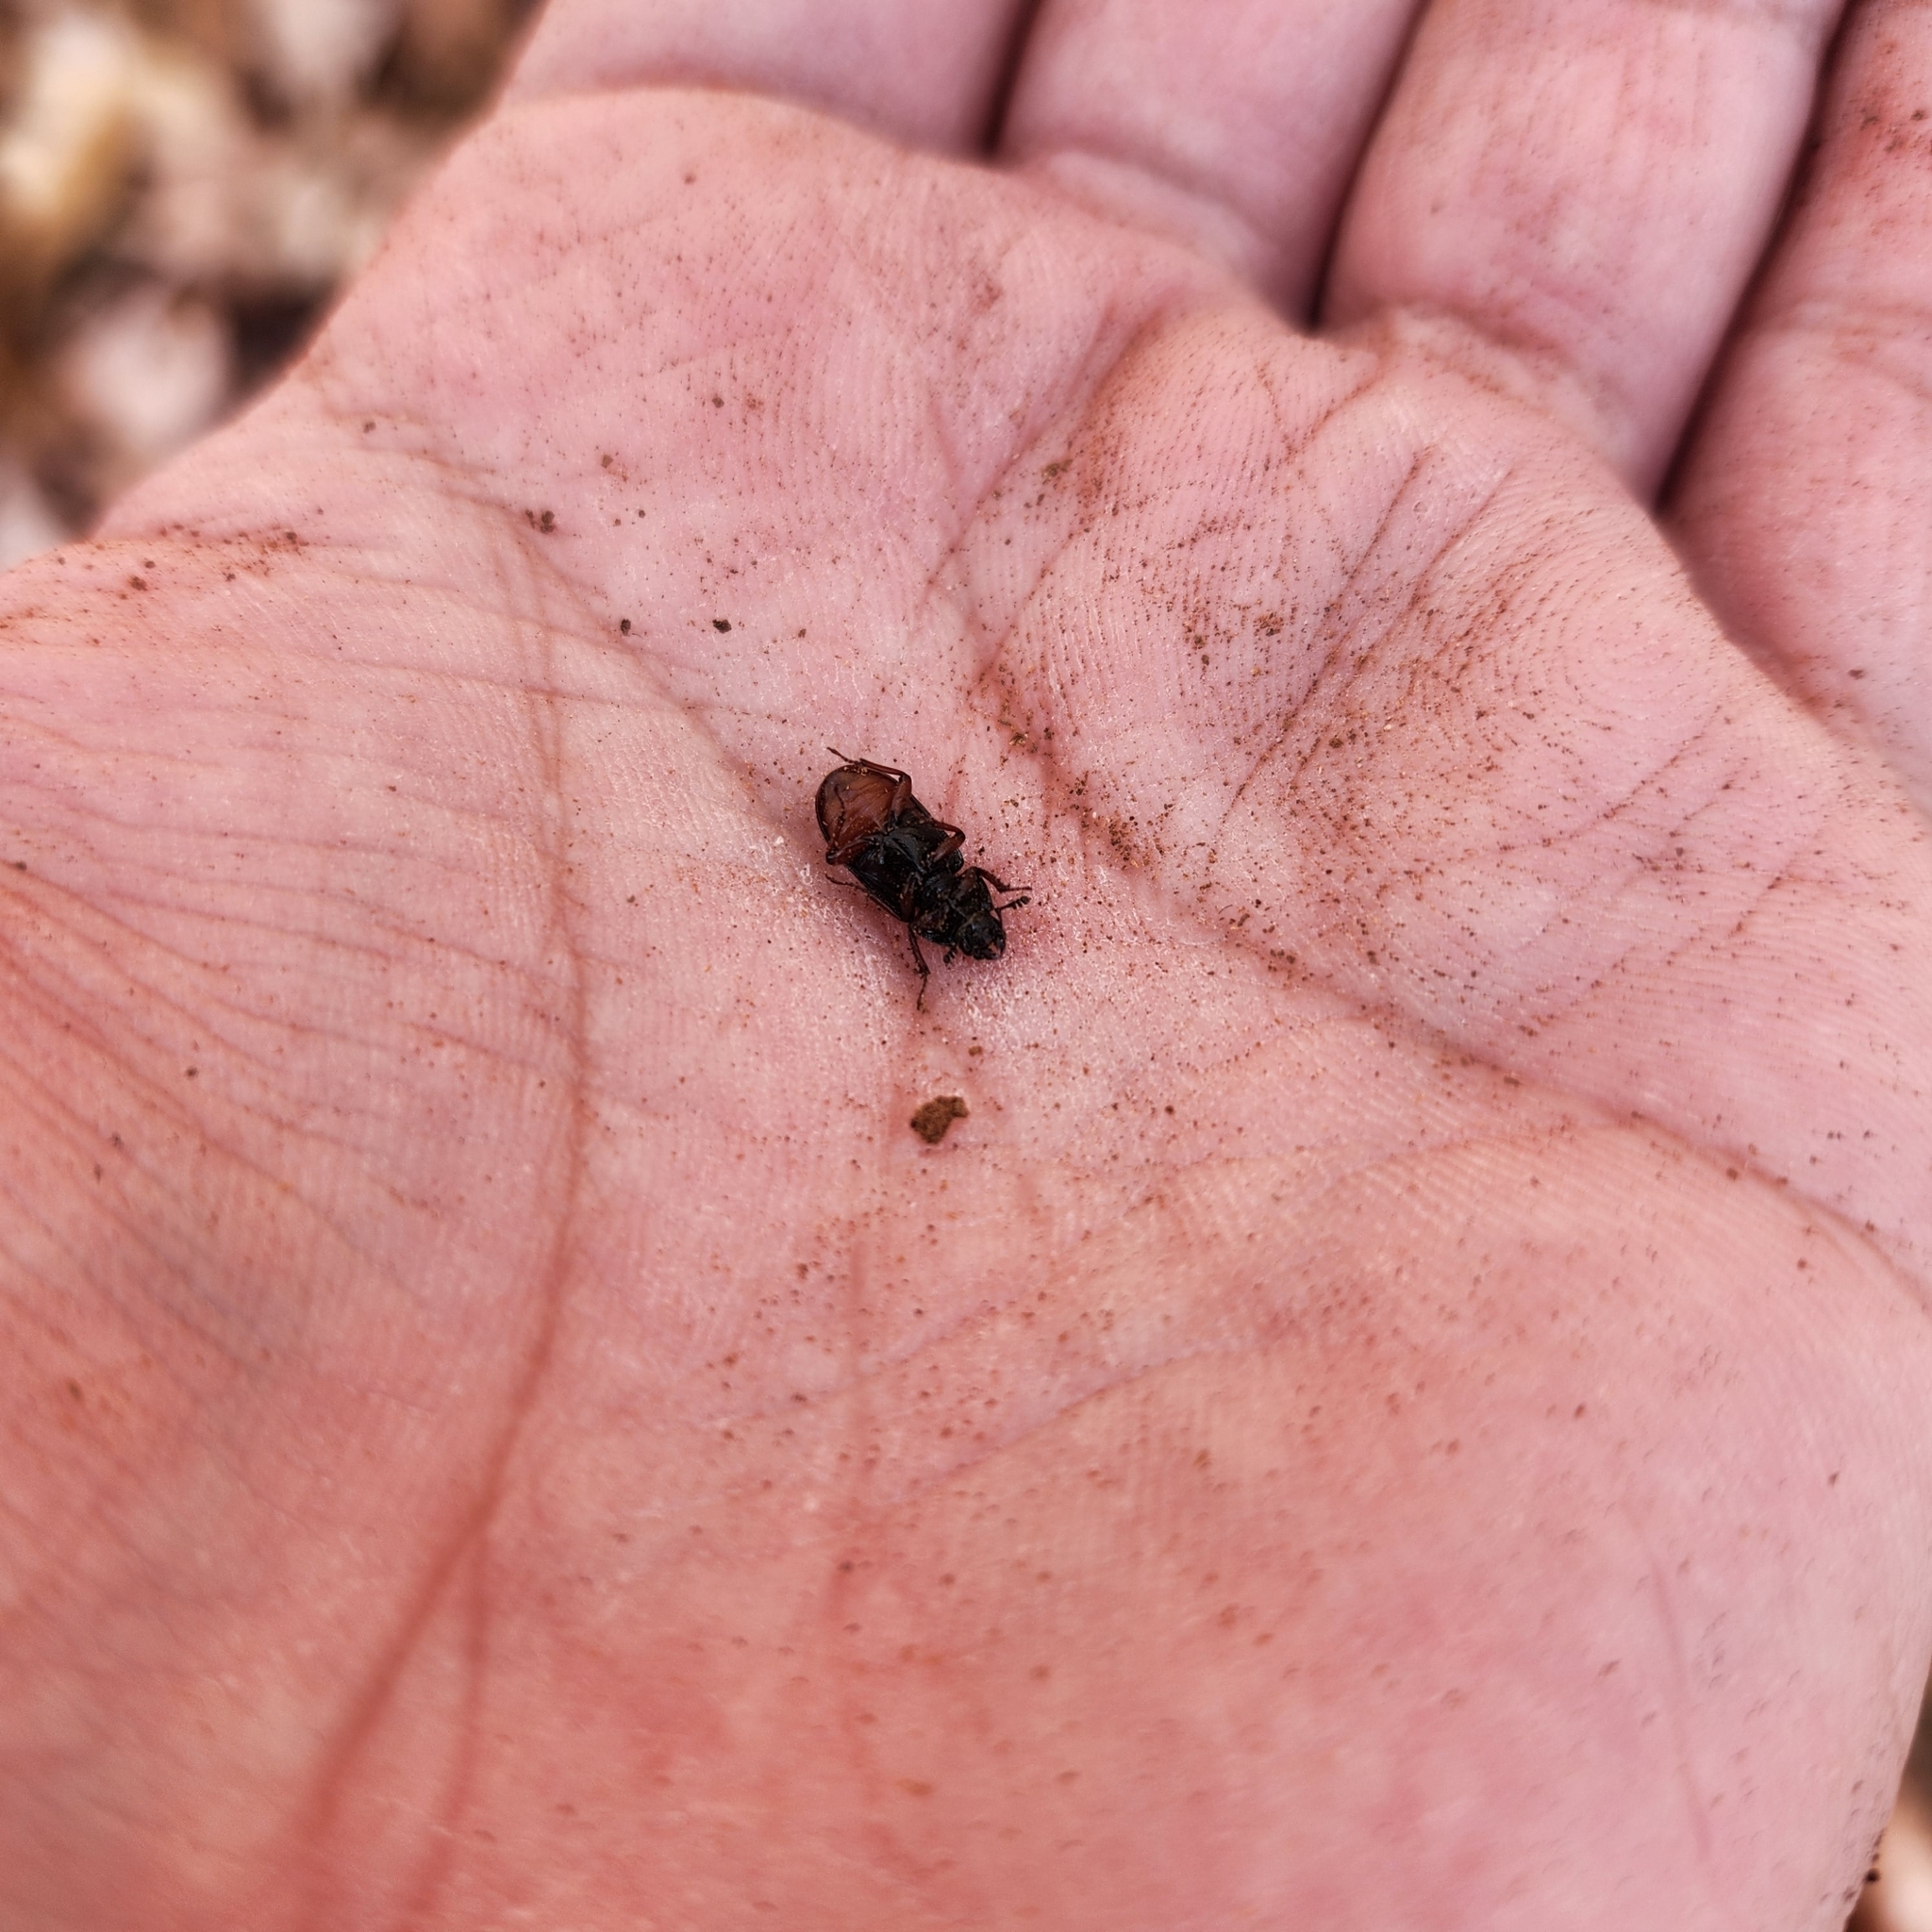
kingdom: Animalia
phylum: Arthropoda
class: Insecta
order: Coleoptera
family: Lucanidae
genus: Platycerus
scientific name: Platycerus quercus
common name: Oak stag beetle
